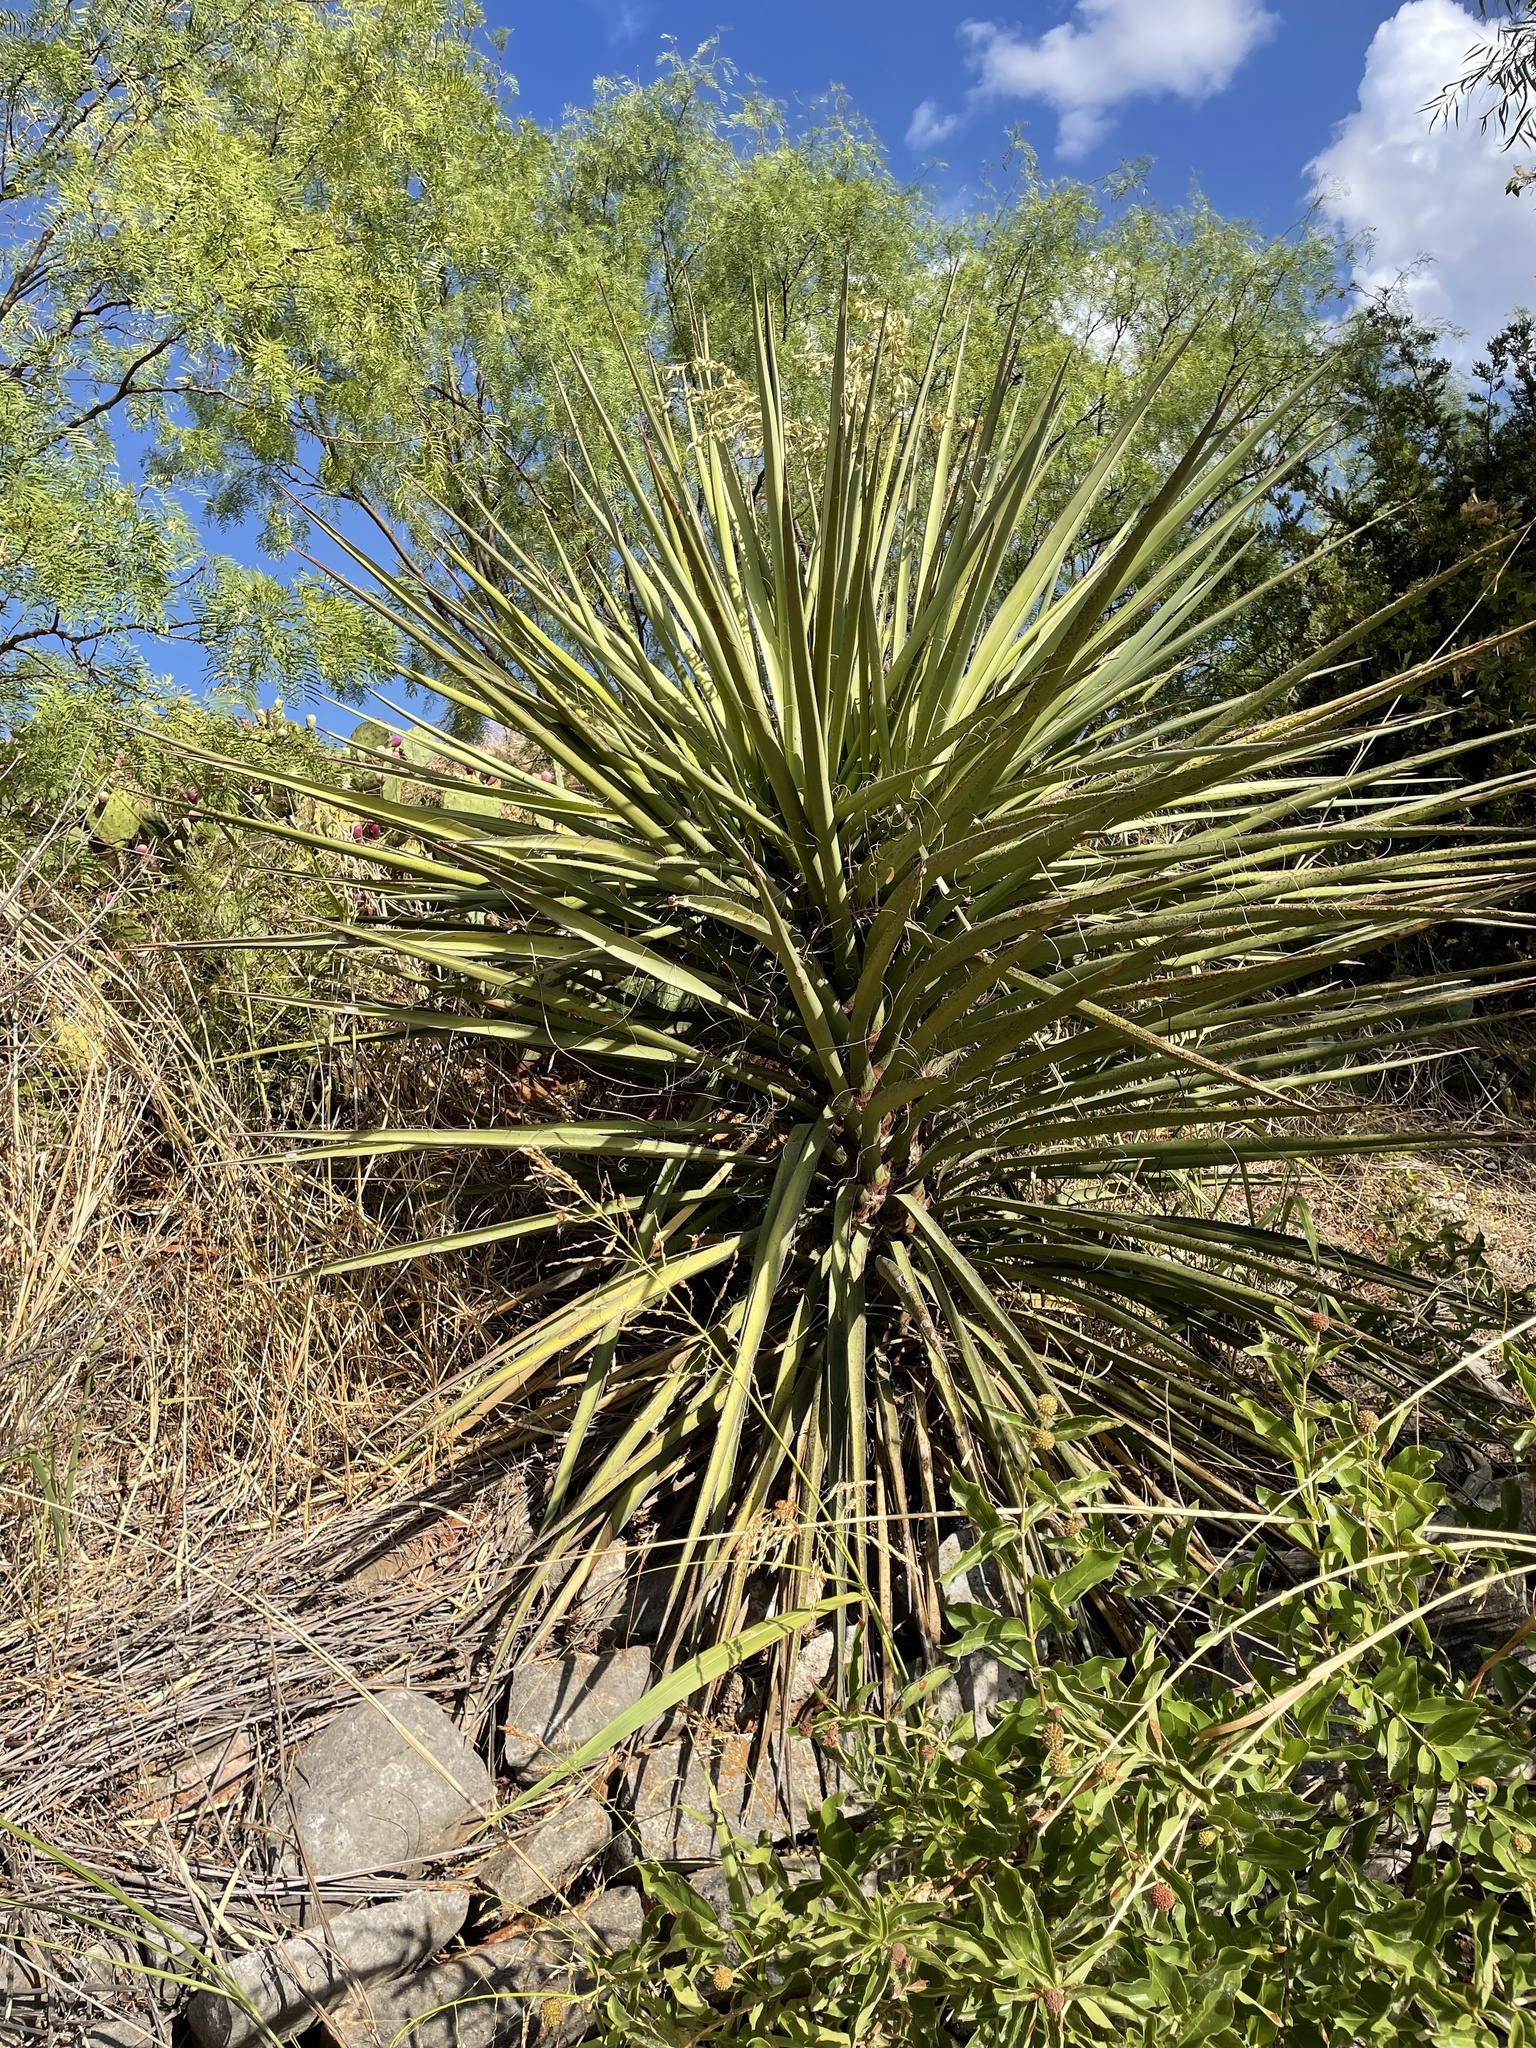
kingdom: Plantae
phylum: Tracheophyta
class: Liliopsida
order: Asparagales
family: Asparagaceae
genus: Yucca
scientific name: Yucca treculiana
